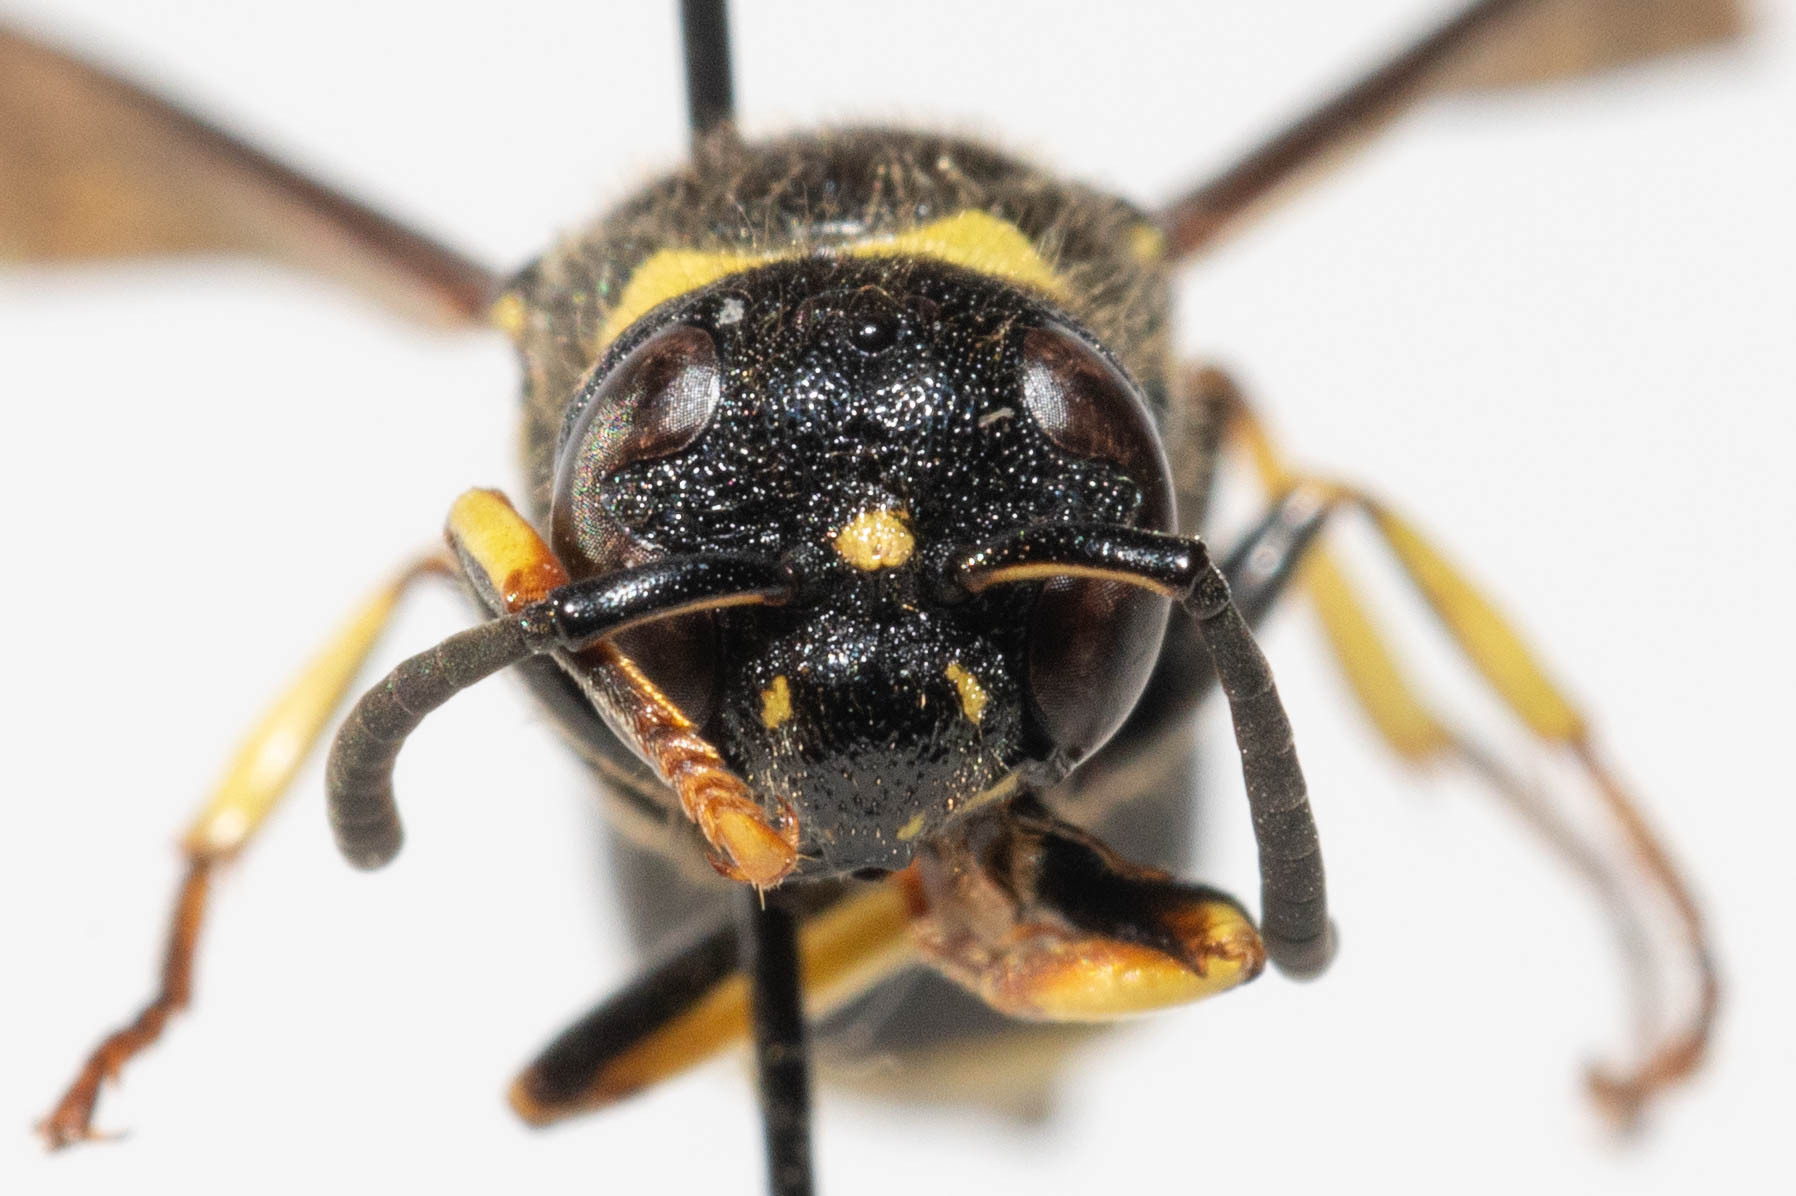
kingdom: Animalia
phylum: Arthropoda
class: Insecta
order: Hymenoptera
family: Vespidae
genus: Ancistrocerus
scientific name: Ancistrocerus
